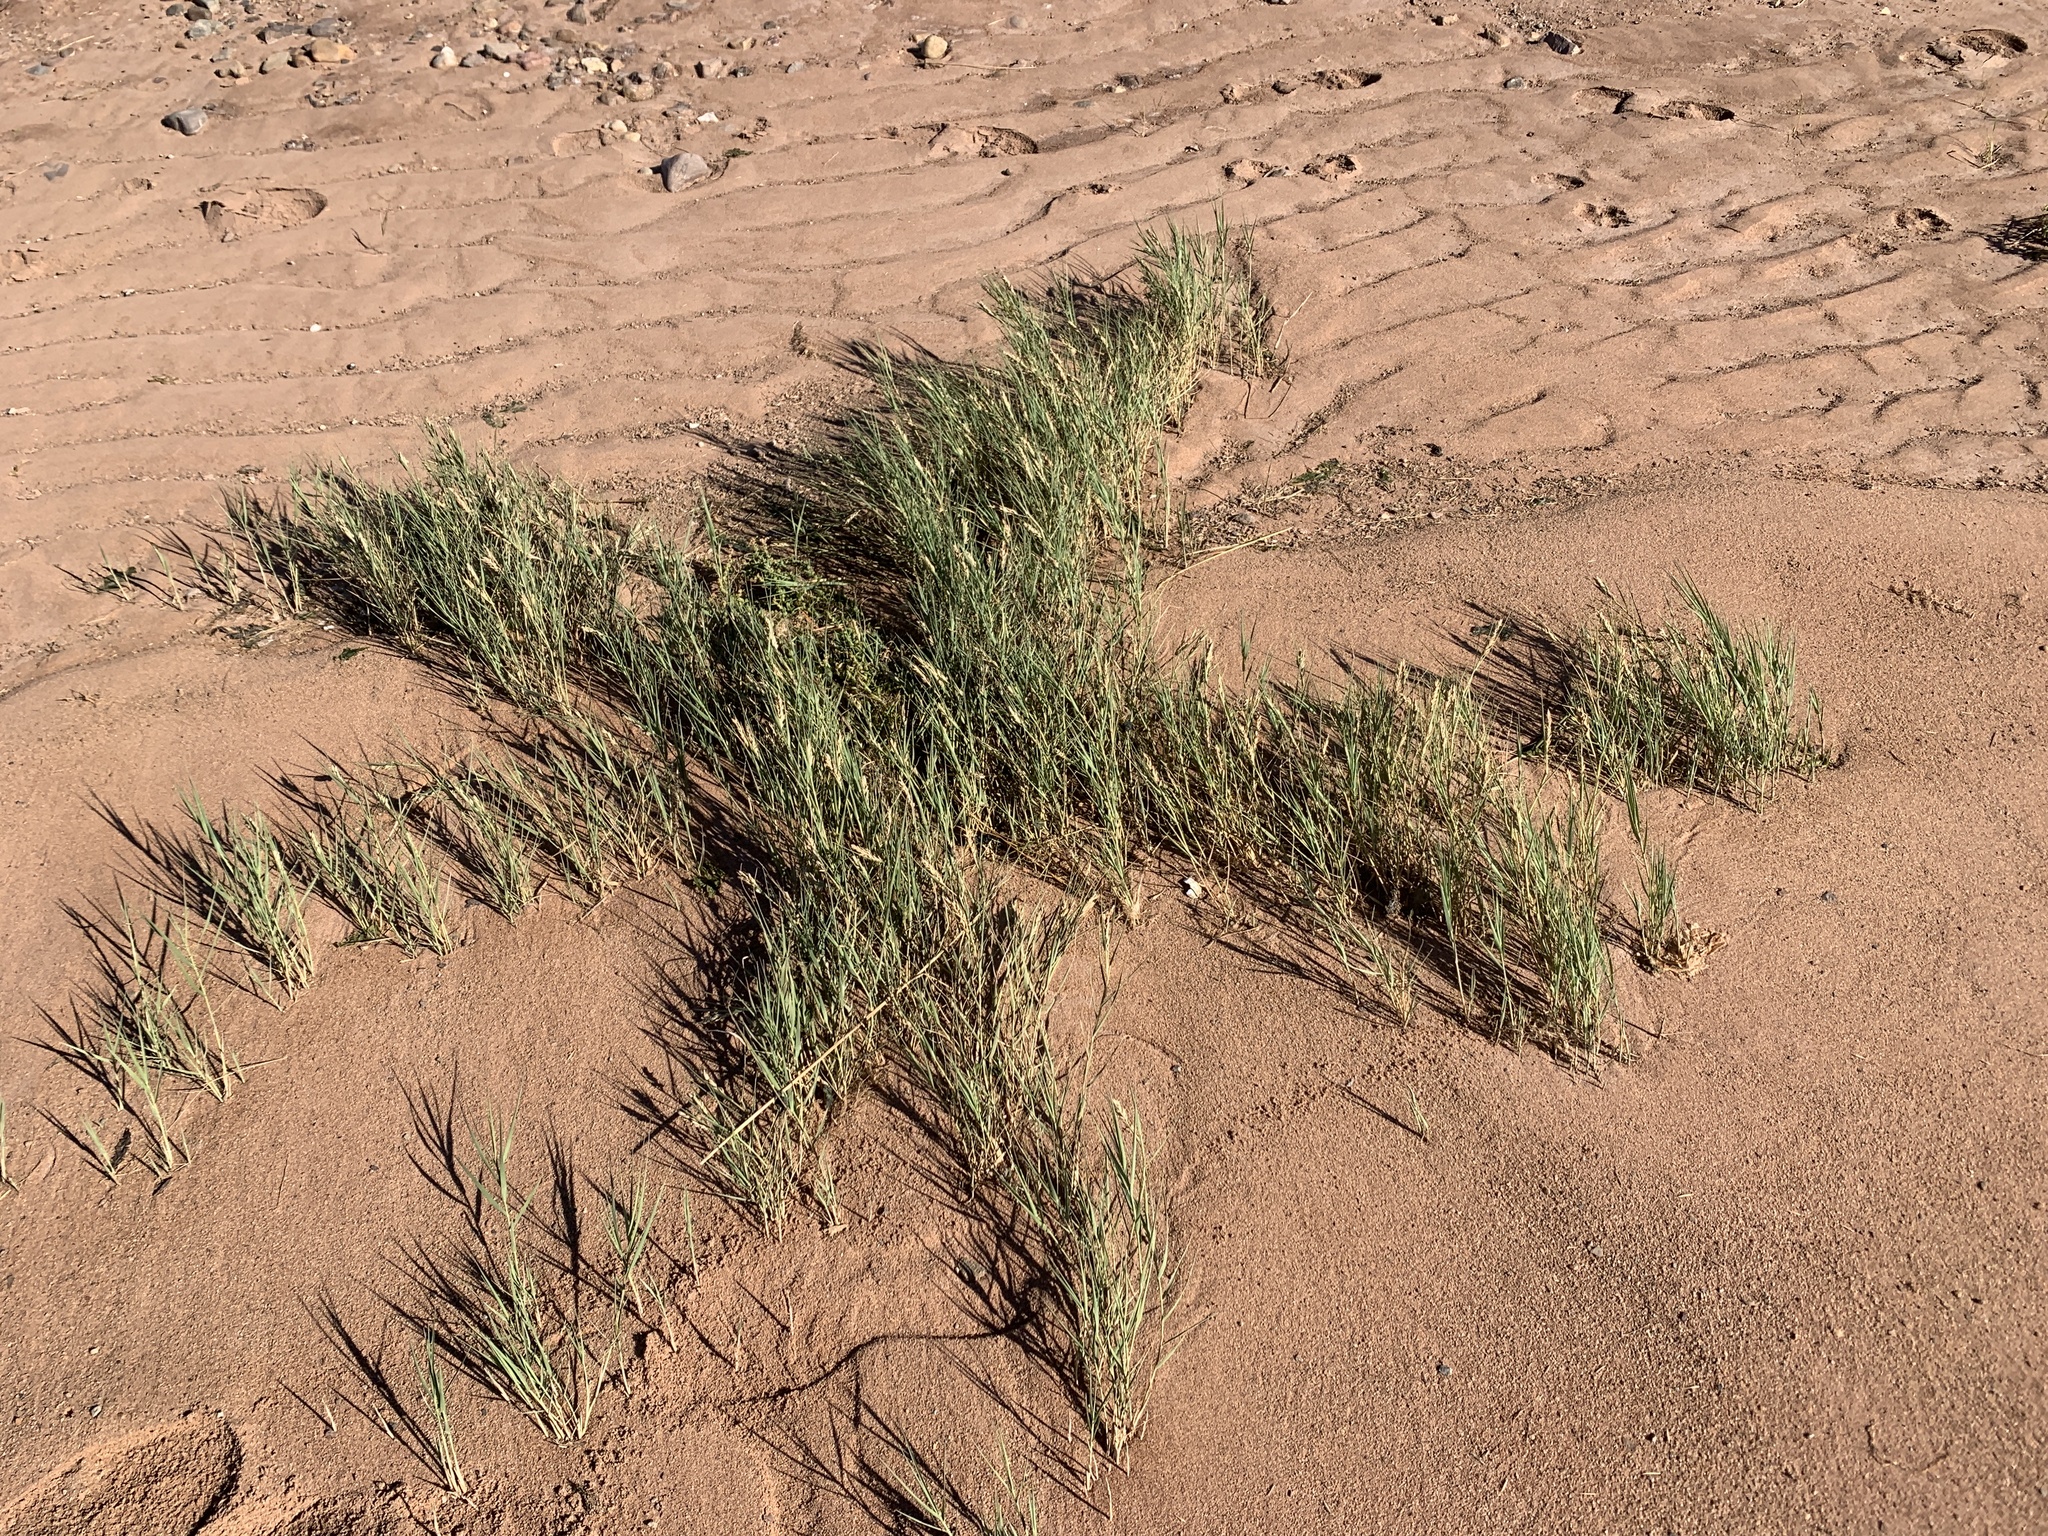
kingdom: Plantae
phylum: Tracheophyta
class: Liliopsida
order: Poales
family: Poaceae
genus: Distichlis
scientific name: Distichlis spicata
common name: Saltgrass
